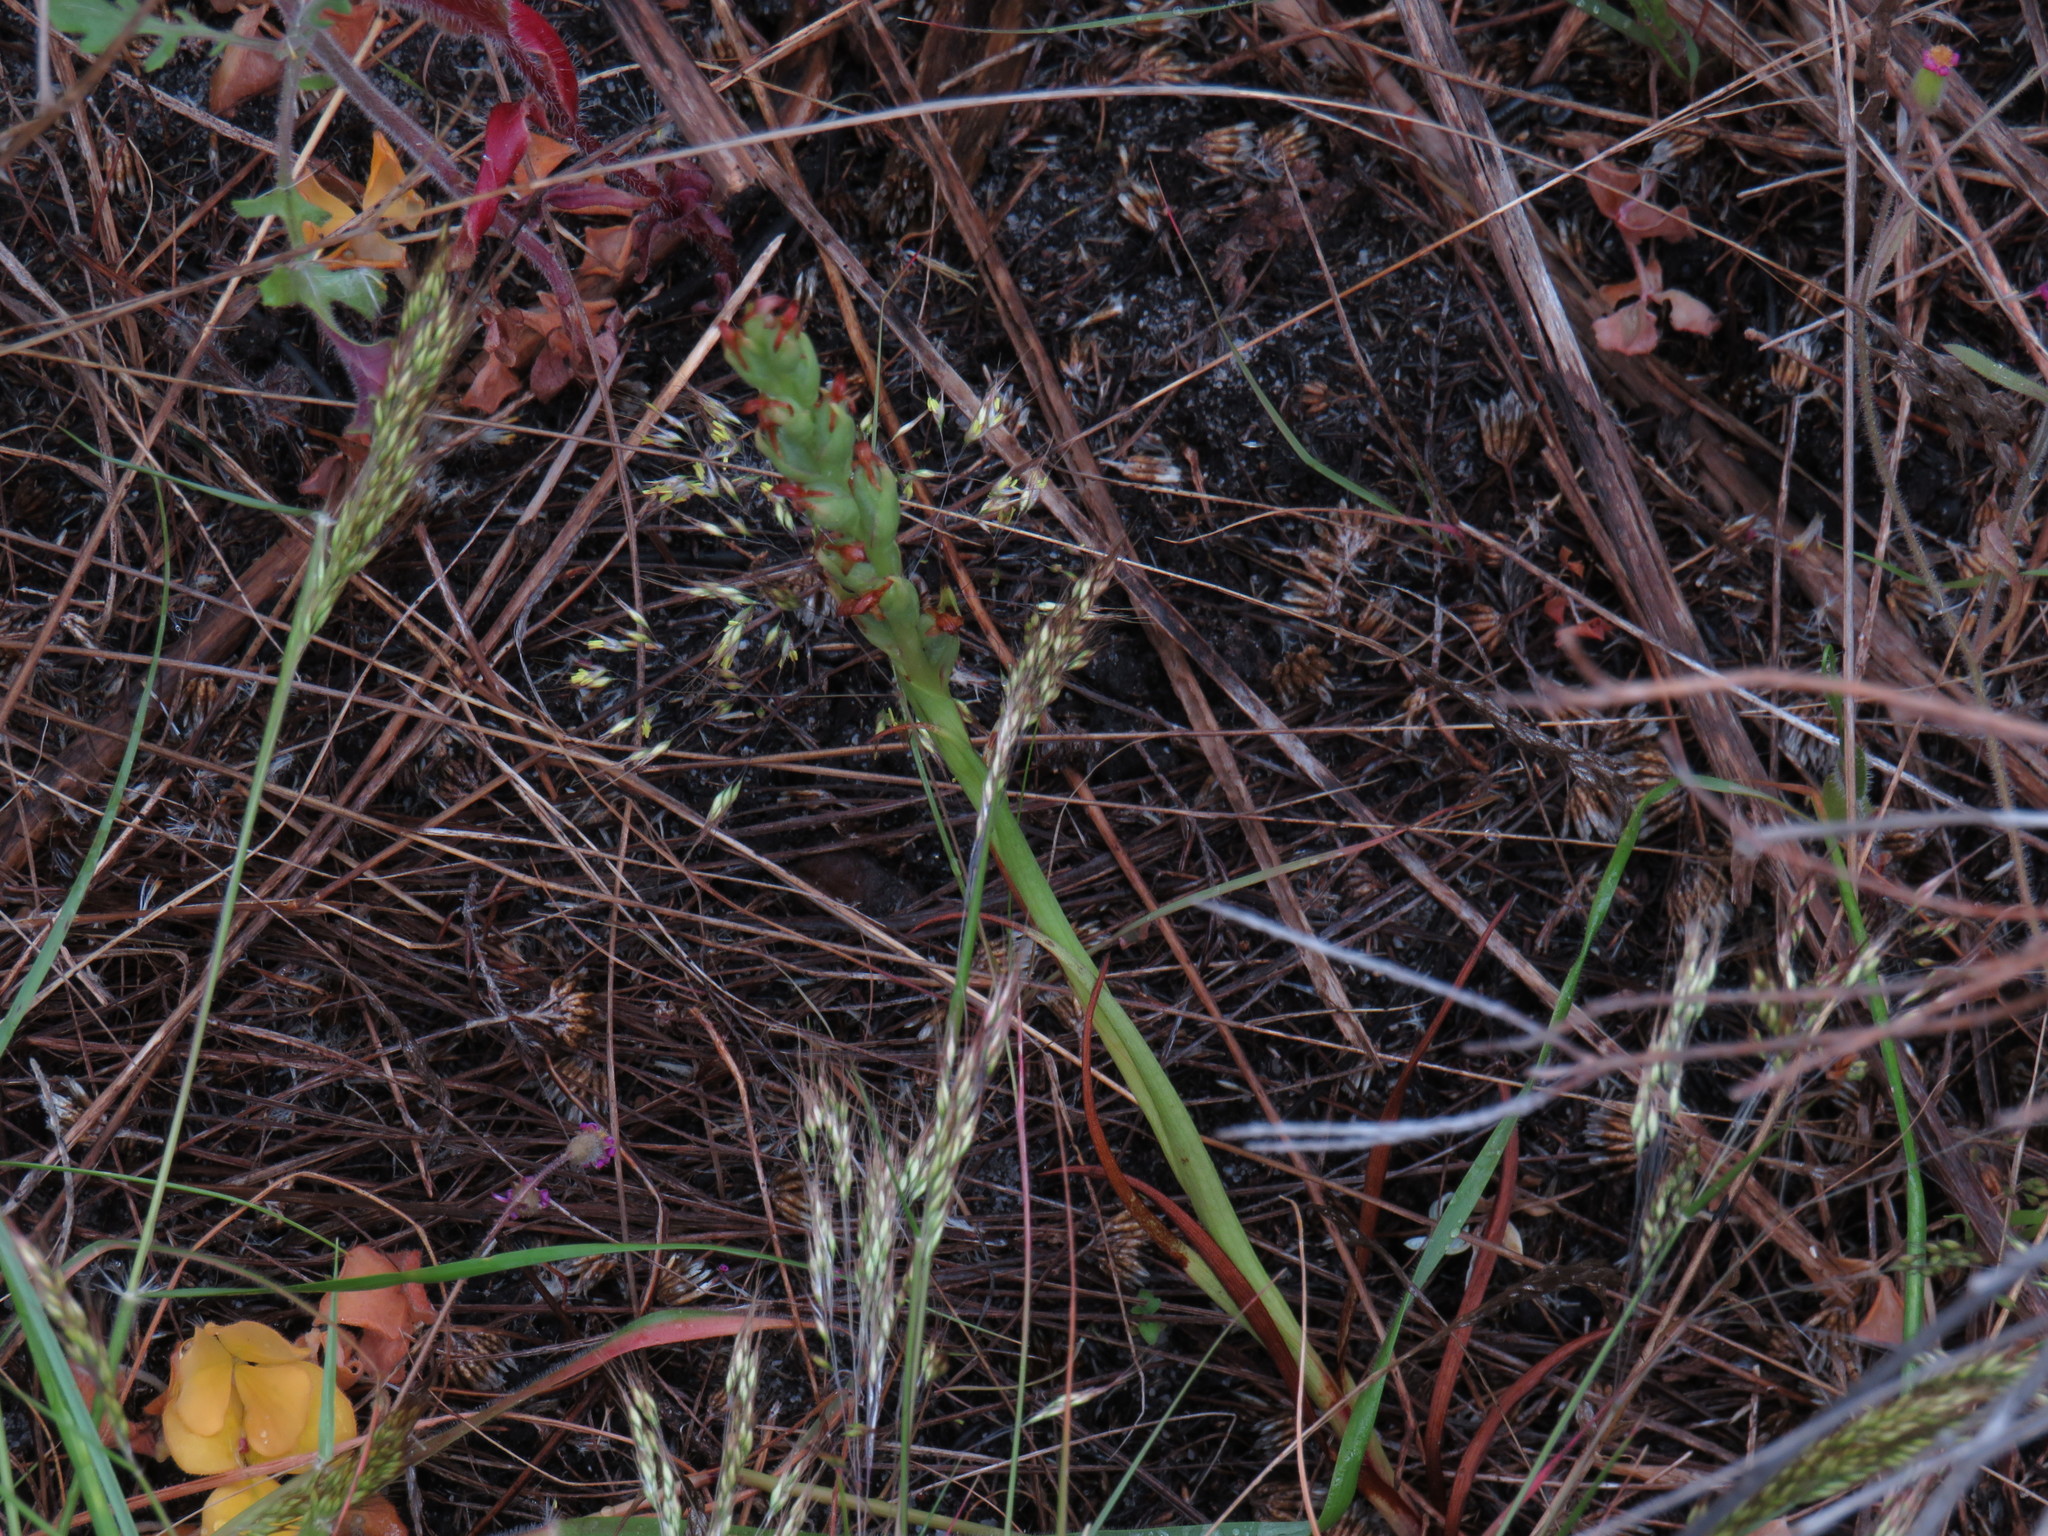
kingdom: Plantae
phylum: Tracheophyta
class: Liliopsida
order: Asparagales
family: Orchidaceae
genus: Disa
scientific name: Disa bracteata
